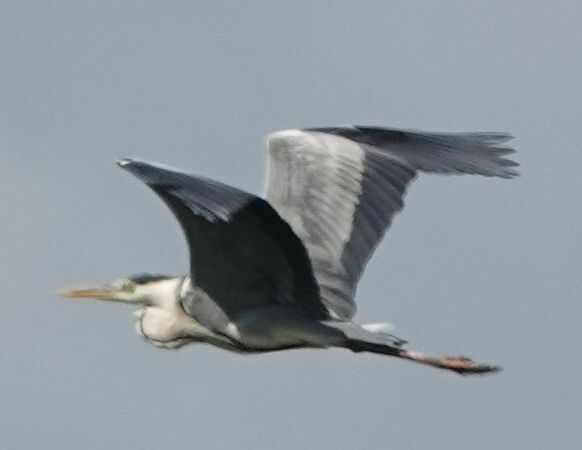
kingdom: Animalia
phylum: Chordata
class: Aves
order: Pelecaniformes
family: Ardeidae
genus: Ardea
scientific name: Ardea cinerea
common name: Grey heron
